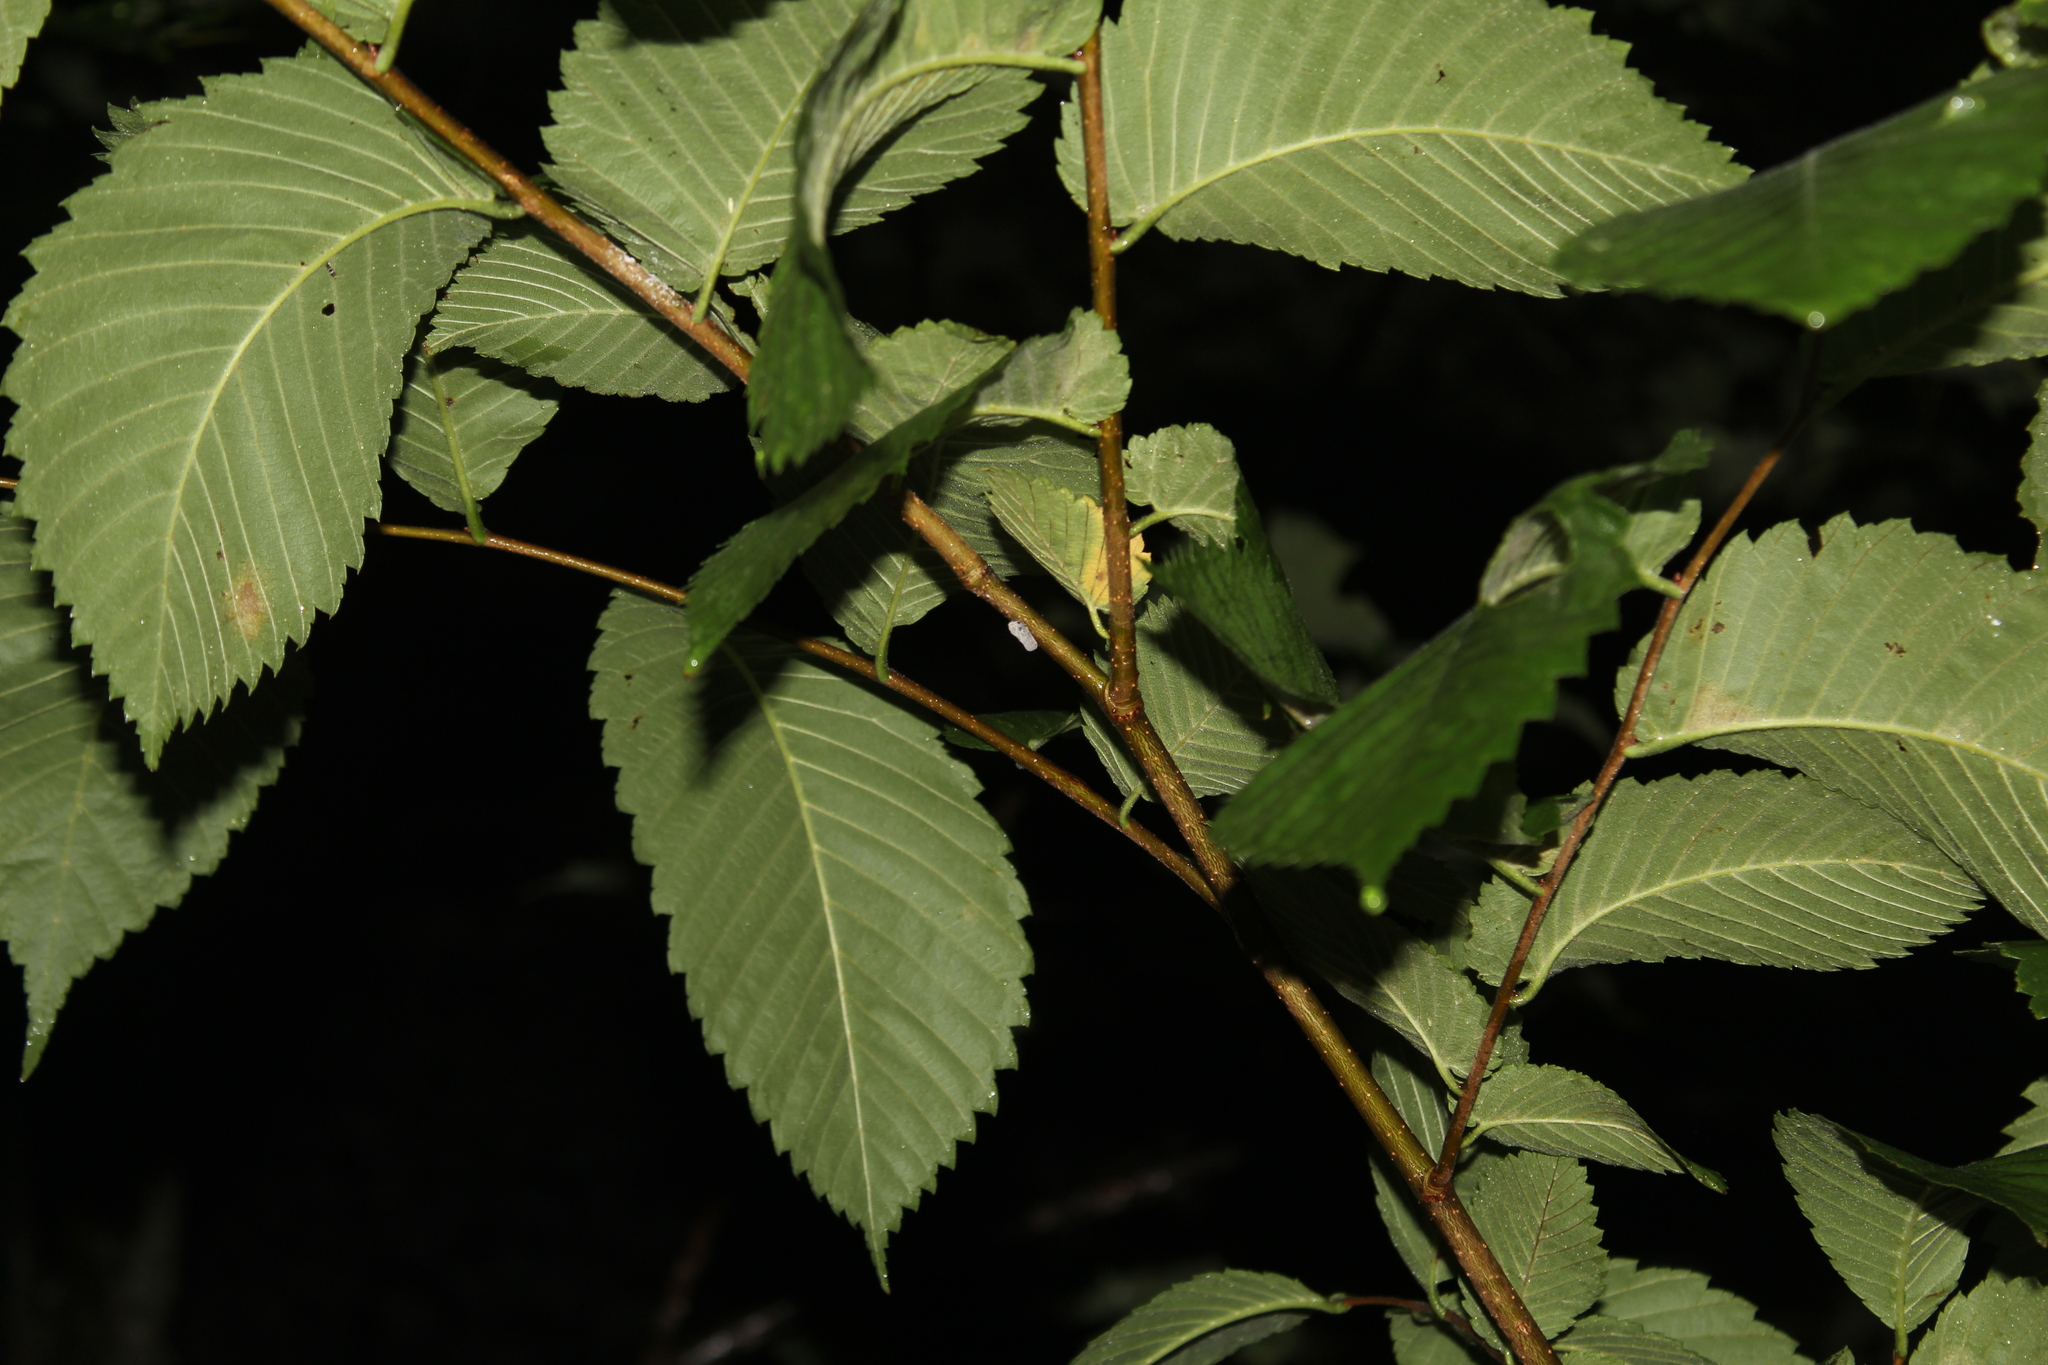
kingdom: Animalia
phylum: Arthropoda
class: Insecta
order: Hemiptera
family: Flatidae
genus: Metcalfa
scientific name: Metcalfa pruinosa
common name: Citrus flatid planthopper
